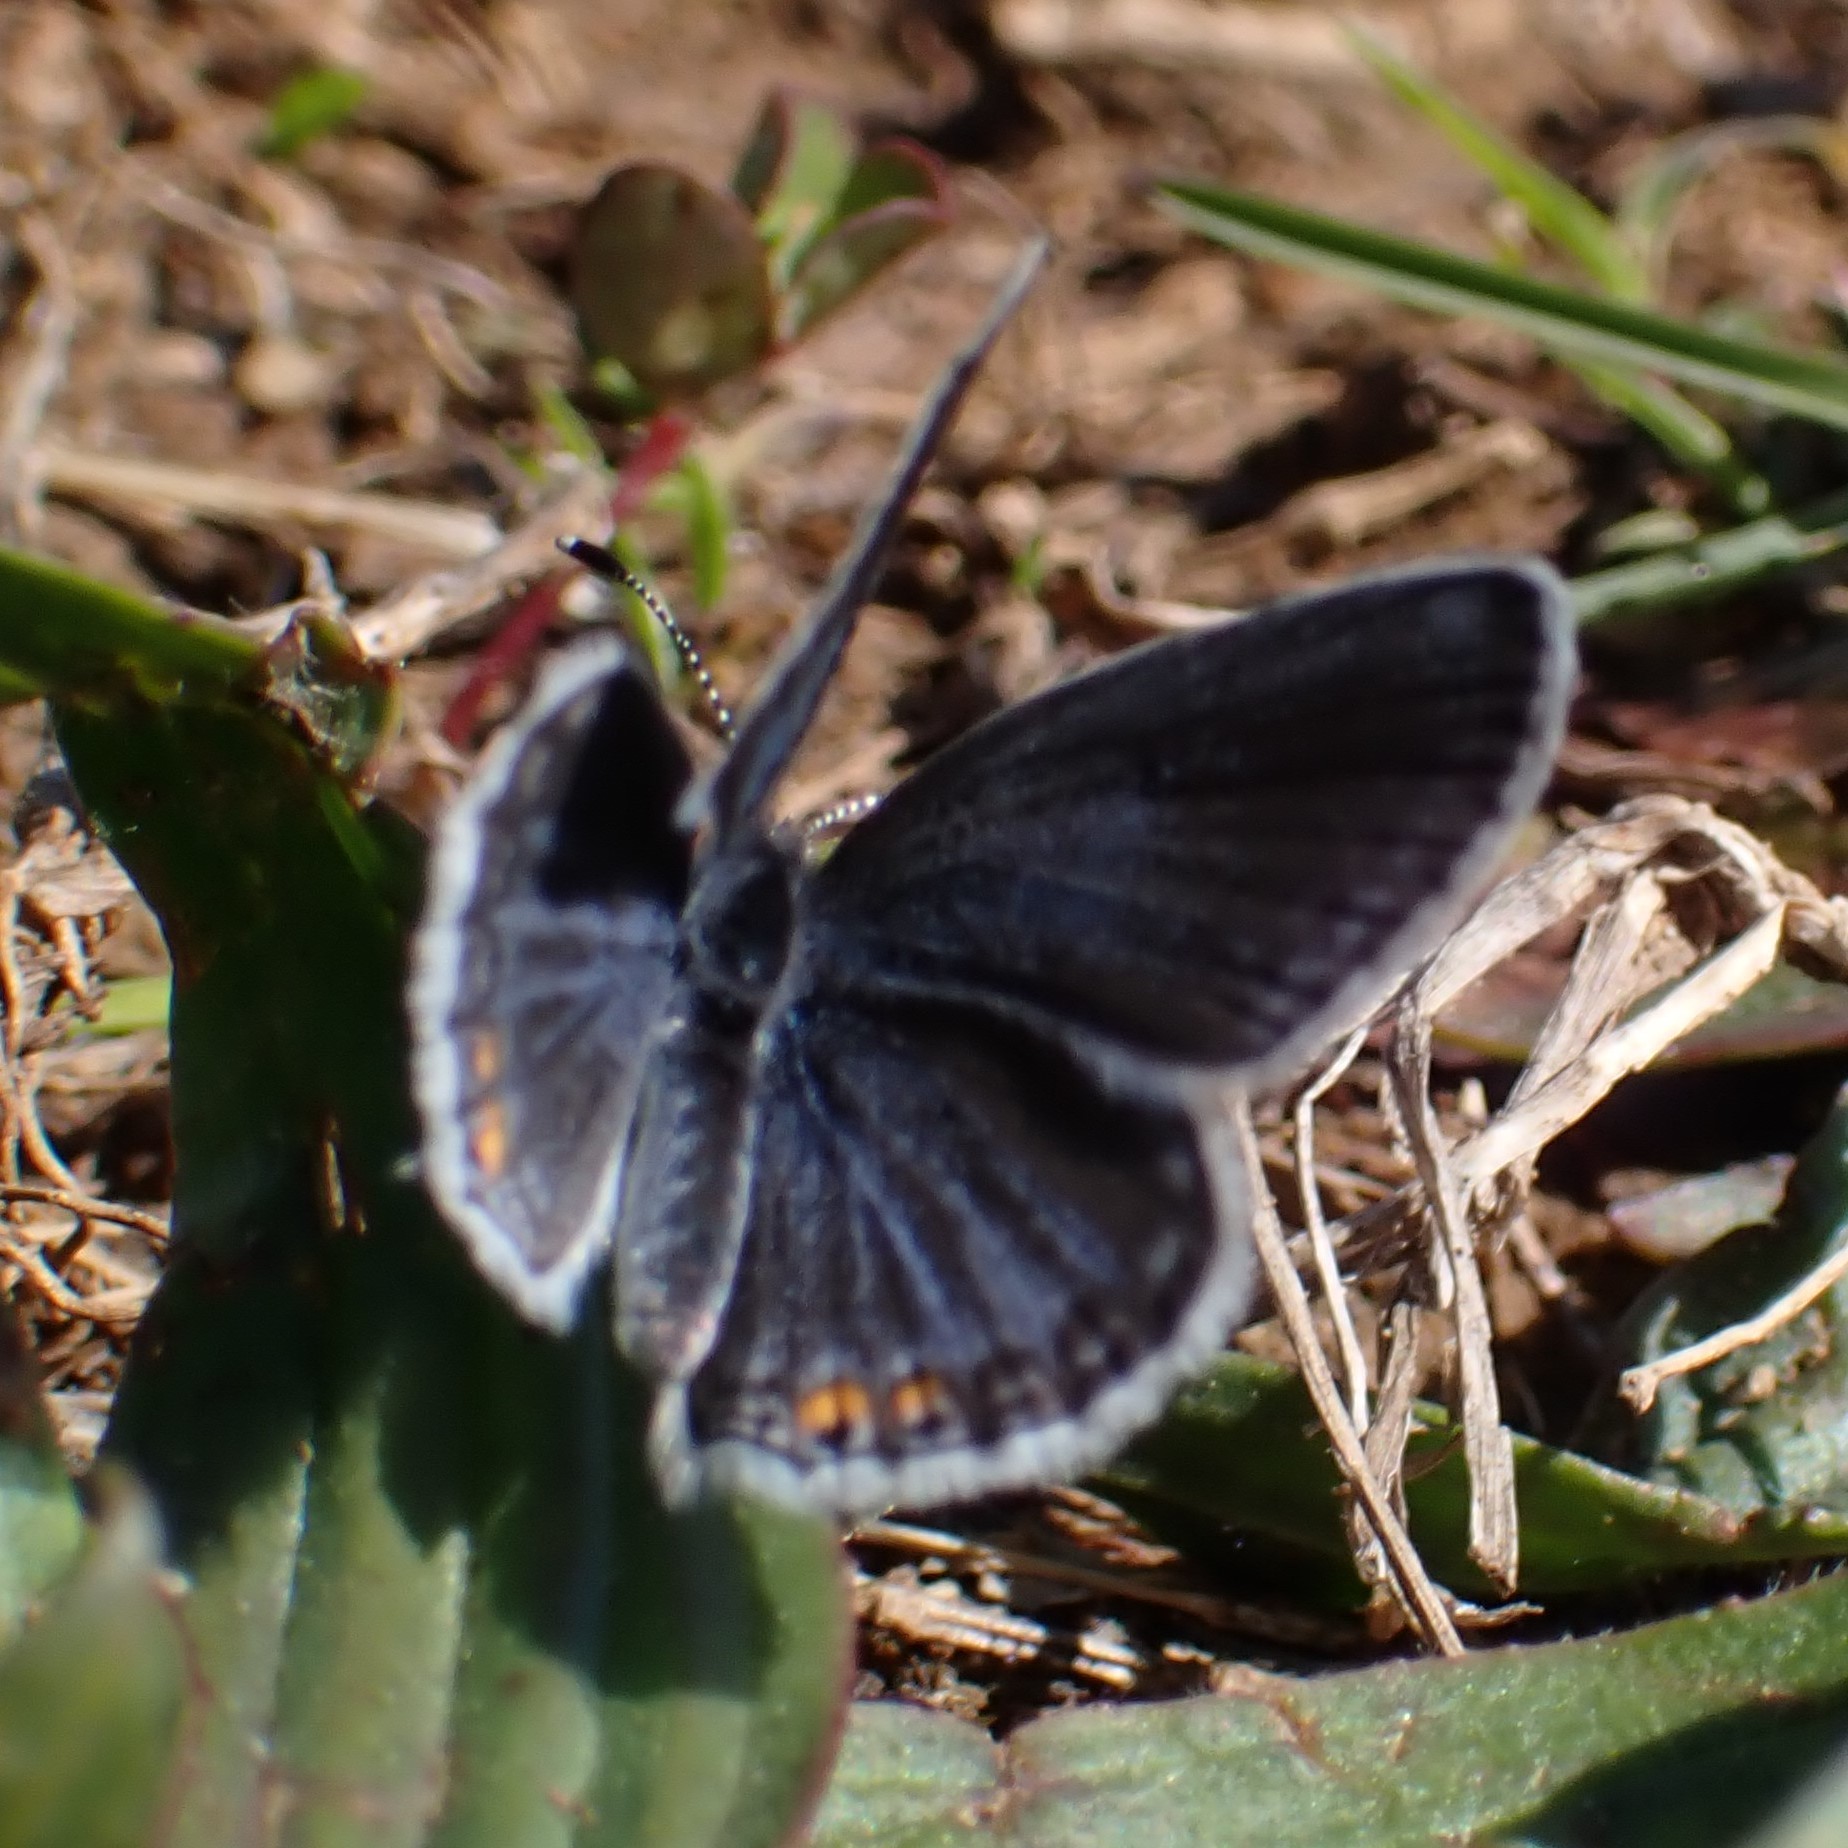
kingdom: Animalia
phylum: Arthropoda
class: Insecta
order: Lepidoptera
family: Lycaenidae
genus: Elkalyce
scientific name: Elkalyce comyntas
